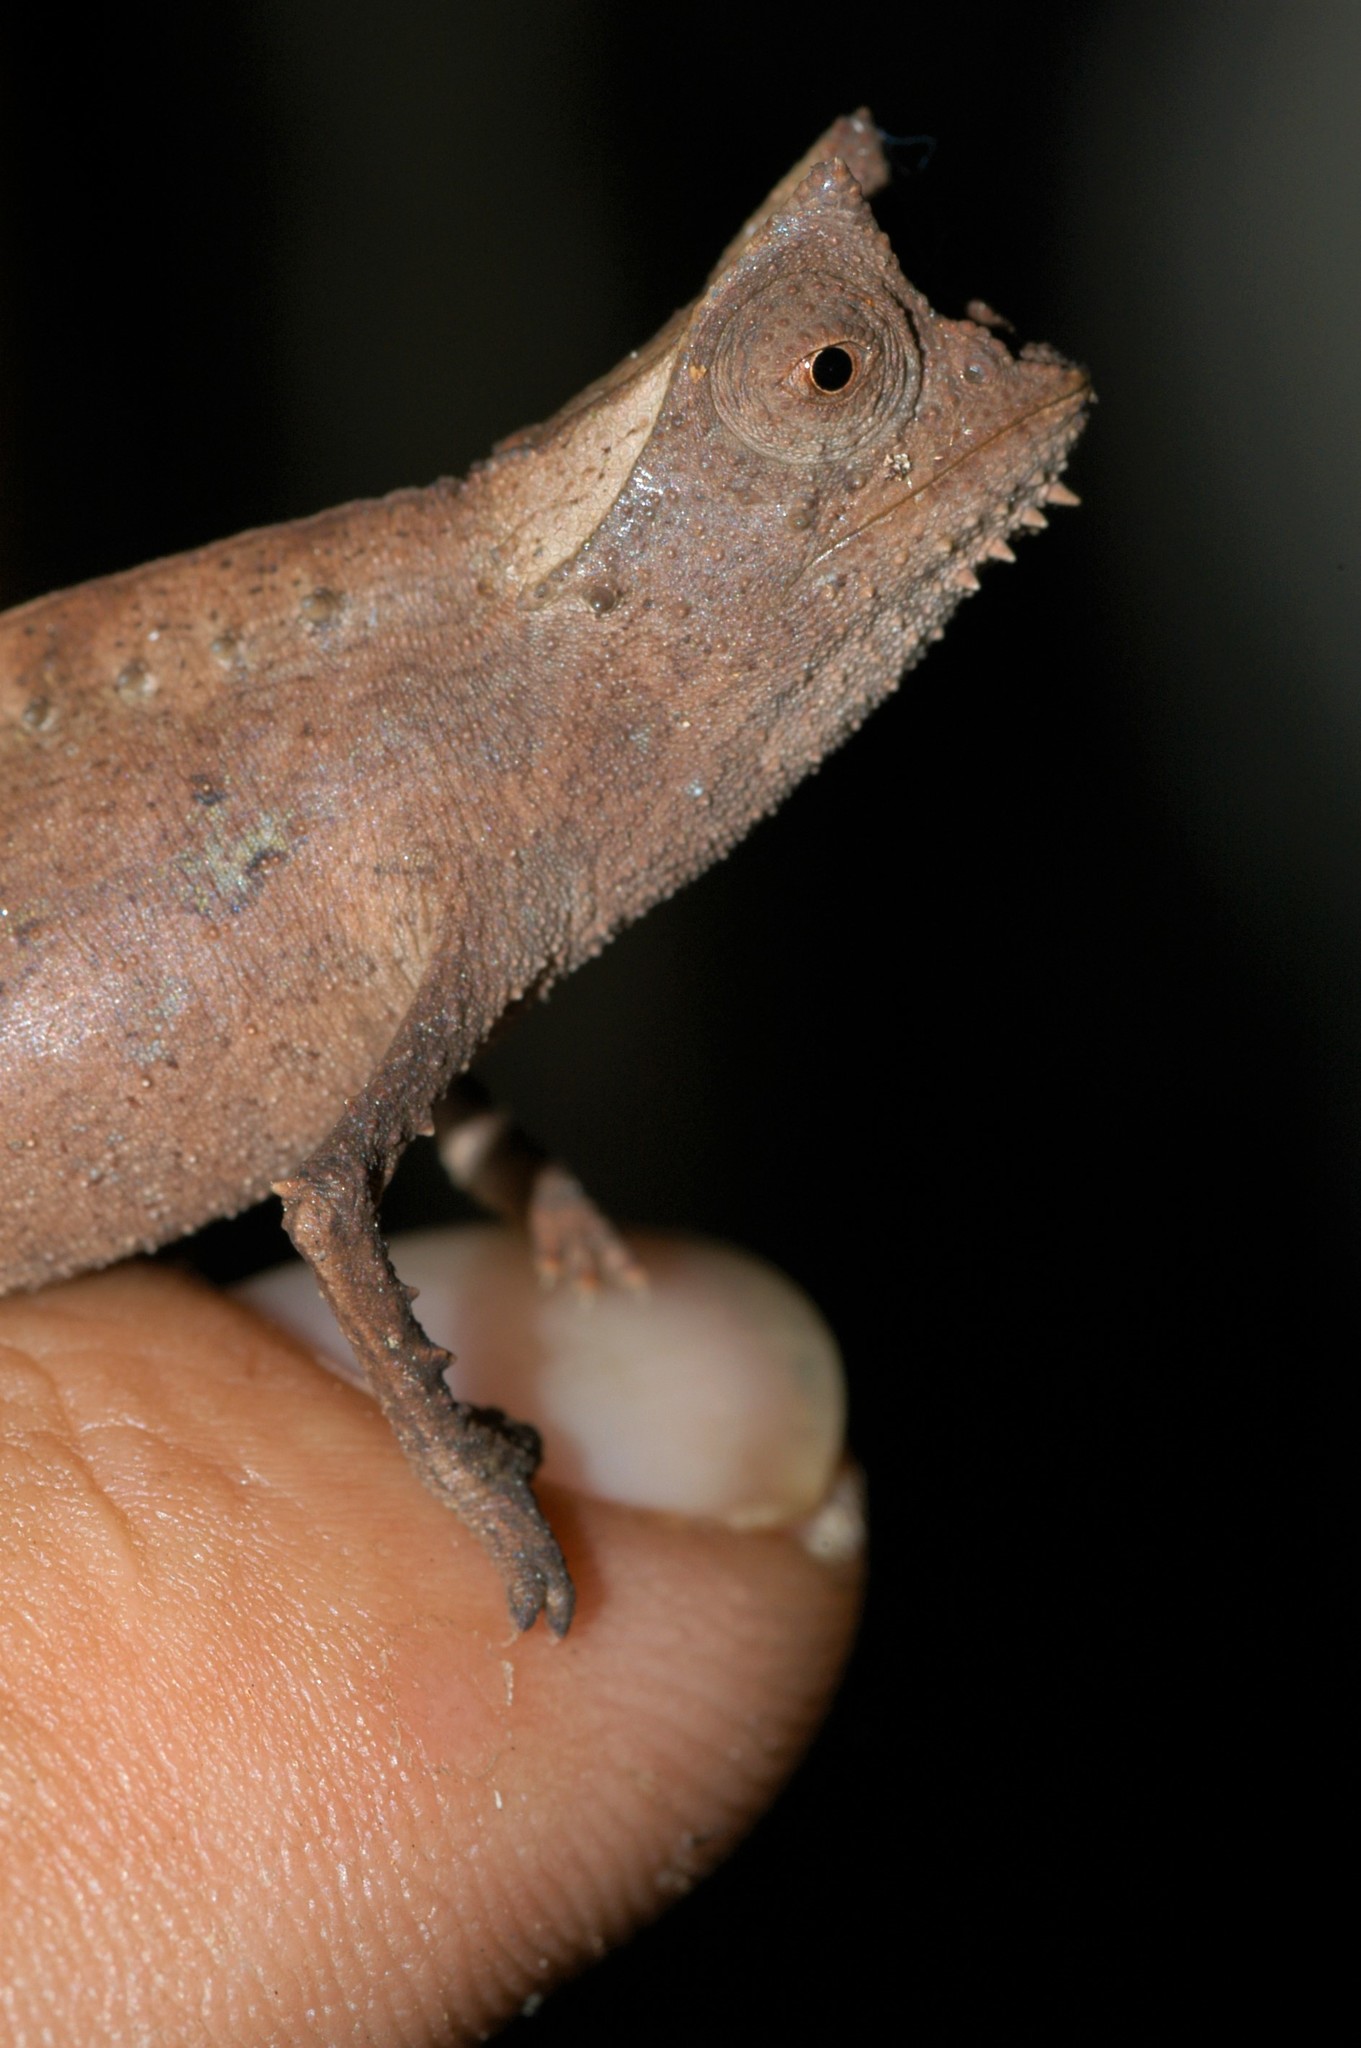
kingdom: Animalia
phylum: Chordata
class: Squamata
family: Chamaeleonidae
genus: Brookesia
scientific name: Brookesia superciliaris
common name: Brown leaf chameleon
